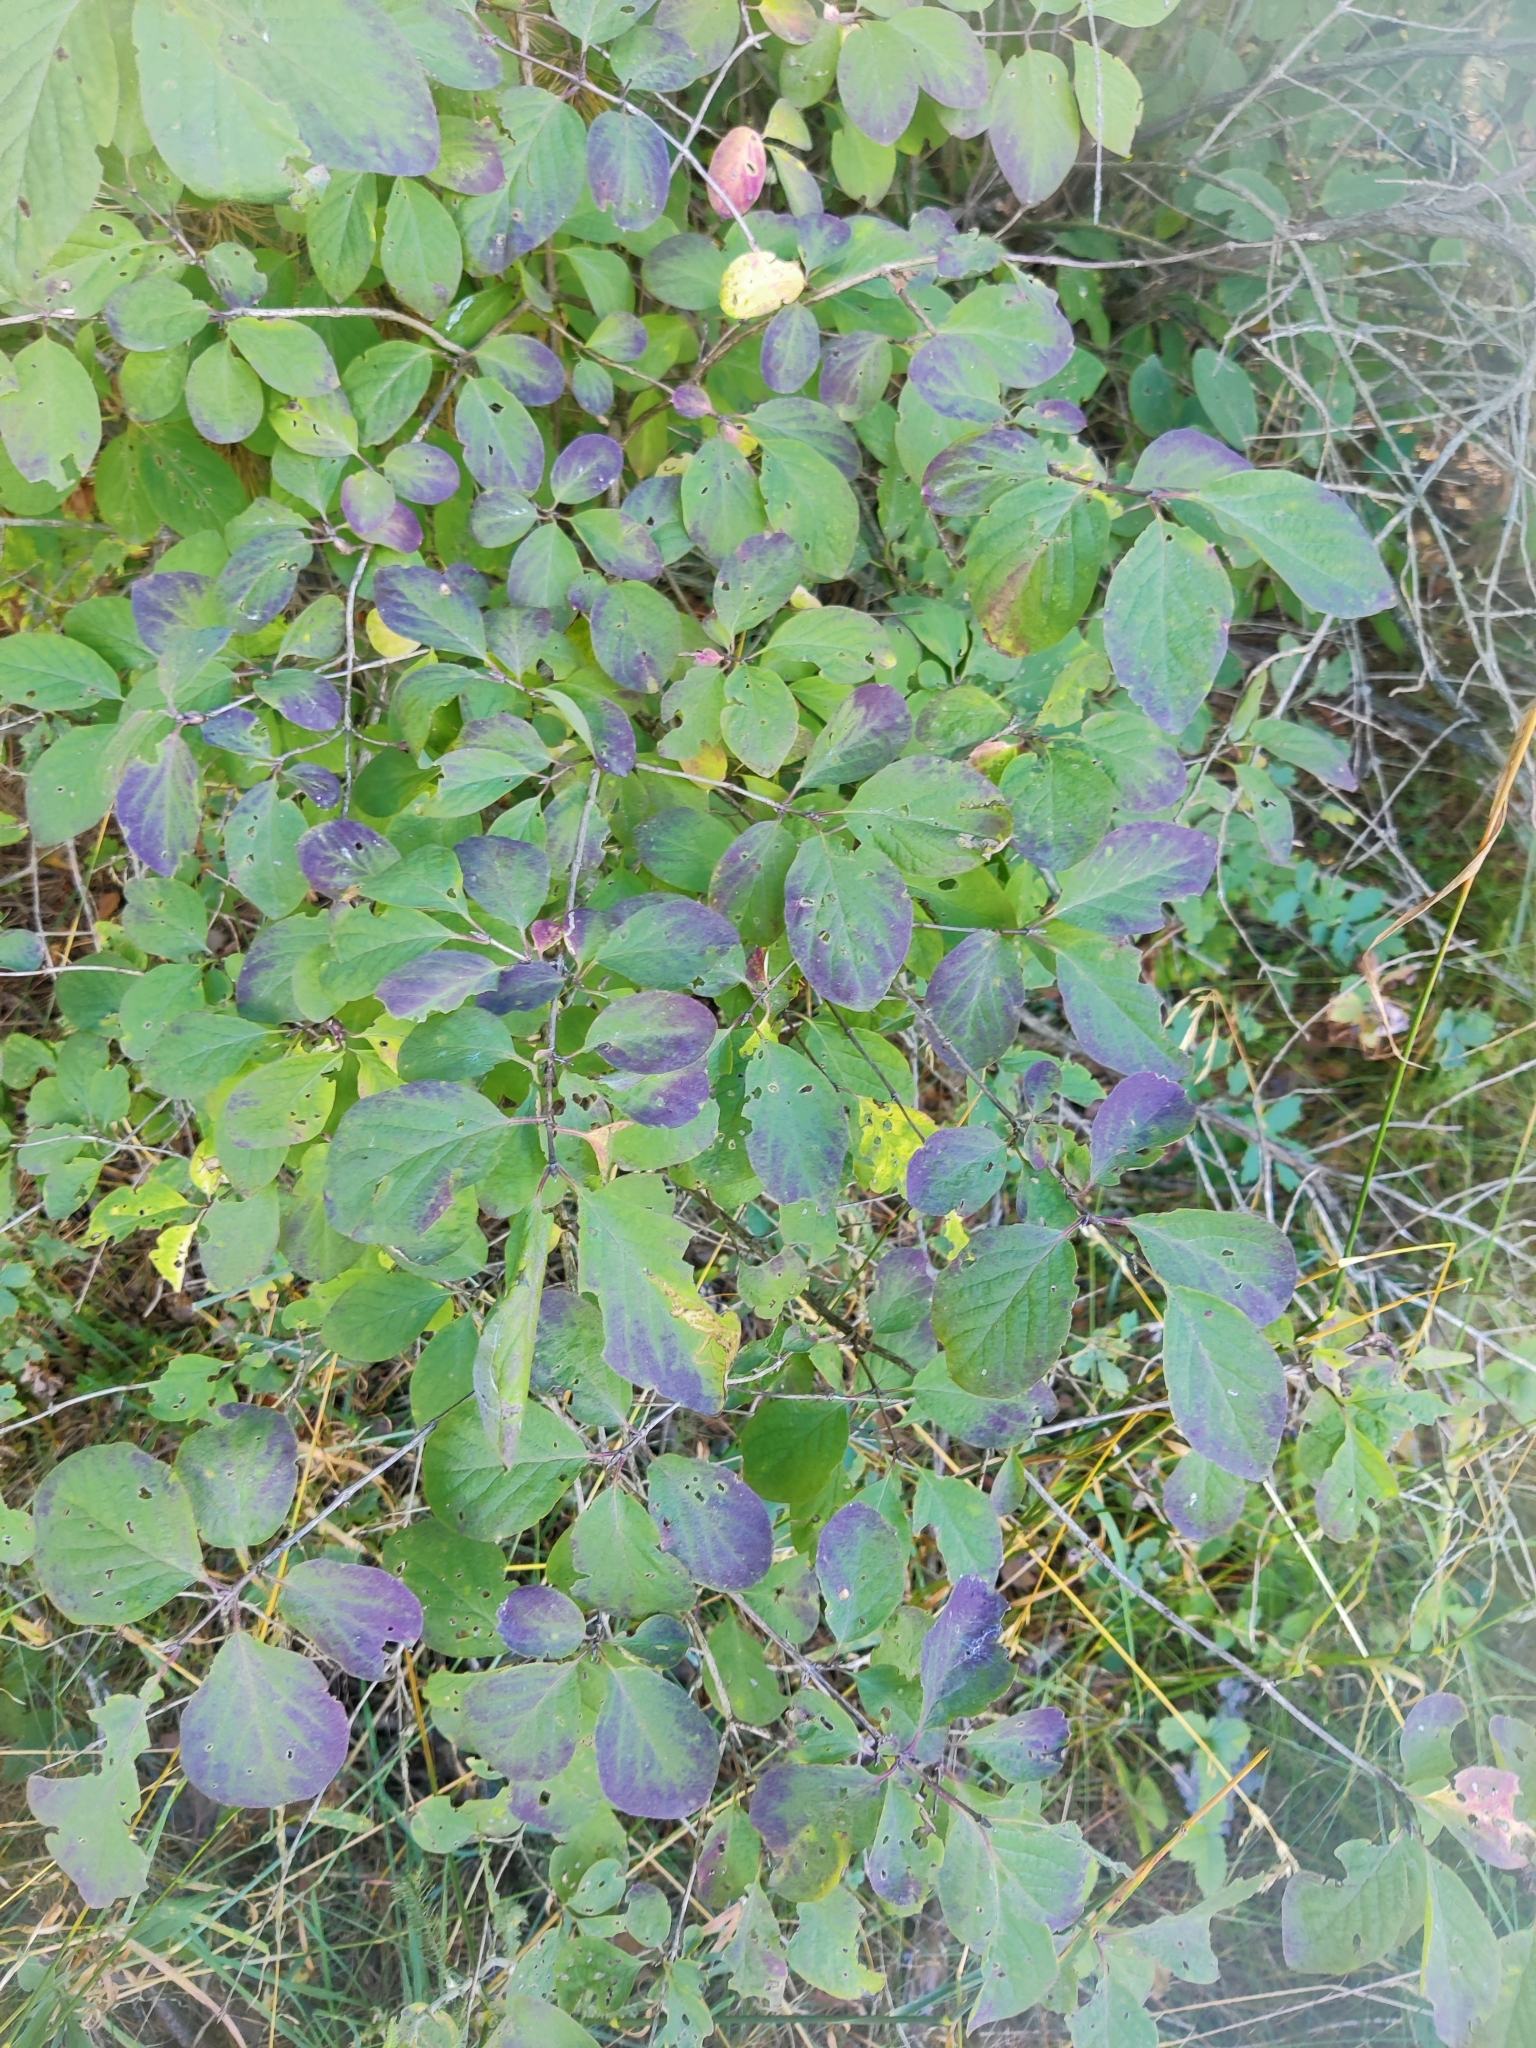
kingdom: Plantae
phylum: Tracheophyta
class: Magnoliopsida
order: Dipsacales
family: Caprifoliaceae
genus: Lonicera
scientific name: Lonicera xylosteum
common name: Fly honeysuckle
